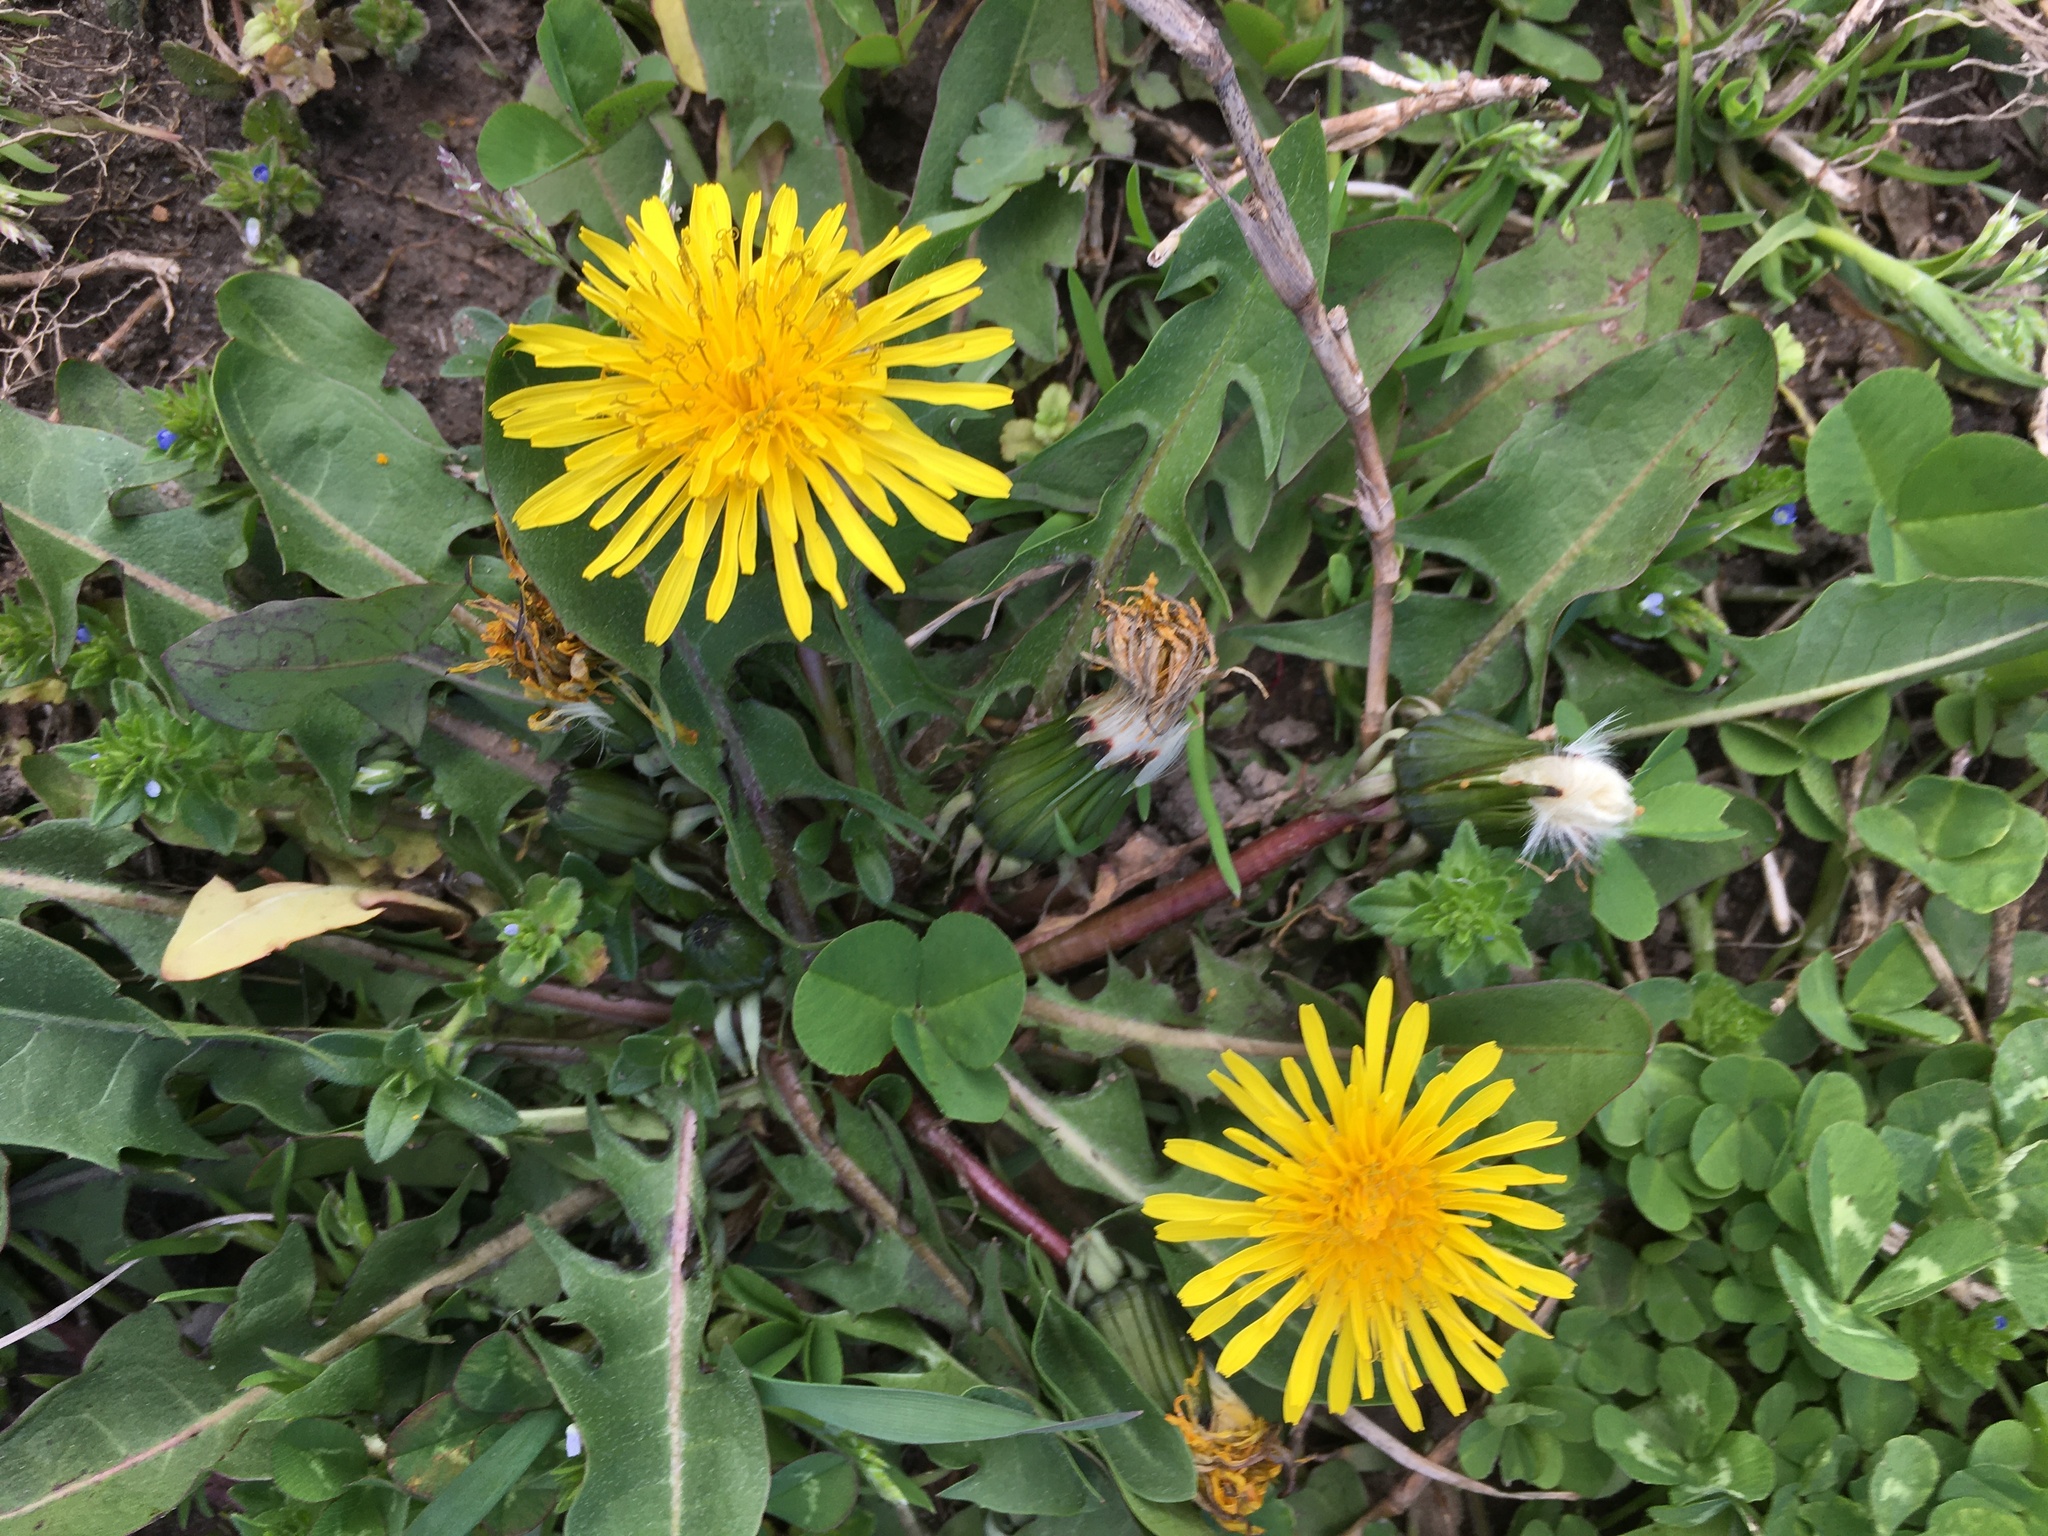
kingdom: Plantae
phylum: Tracheophyta
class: Magnoliopsida
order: Asterales
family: Asteraceae
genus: Taraxacum
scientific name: Taraxacum officinale
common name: Common dandelion
